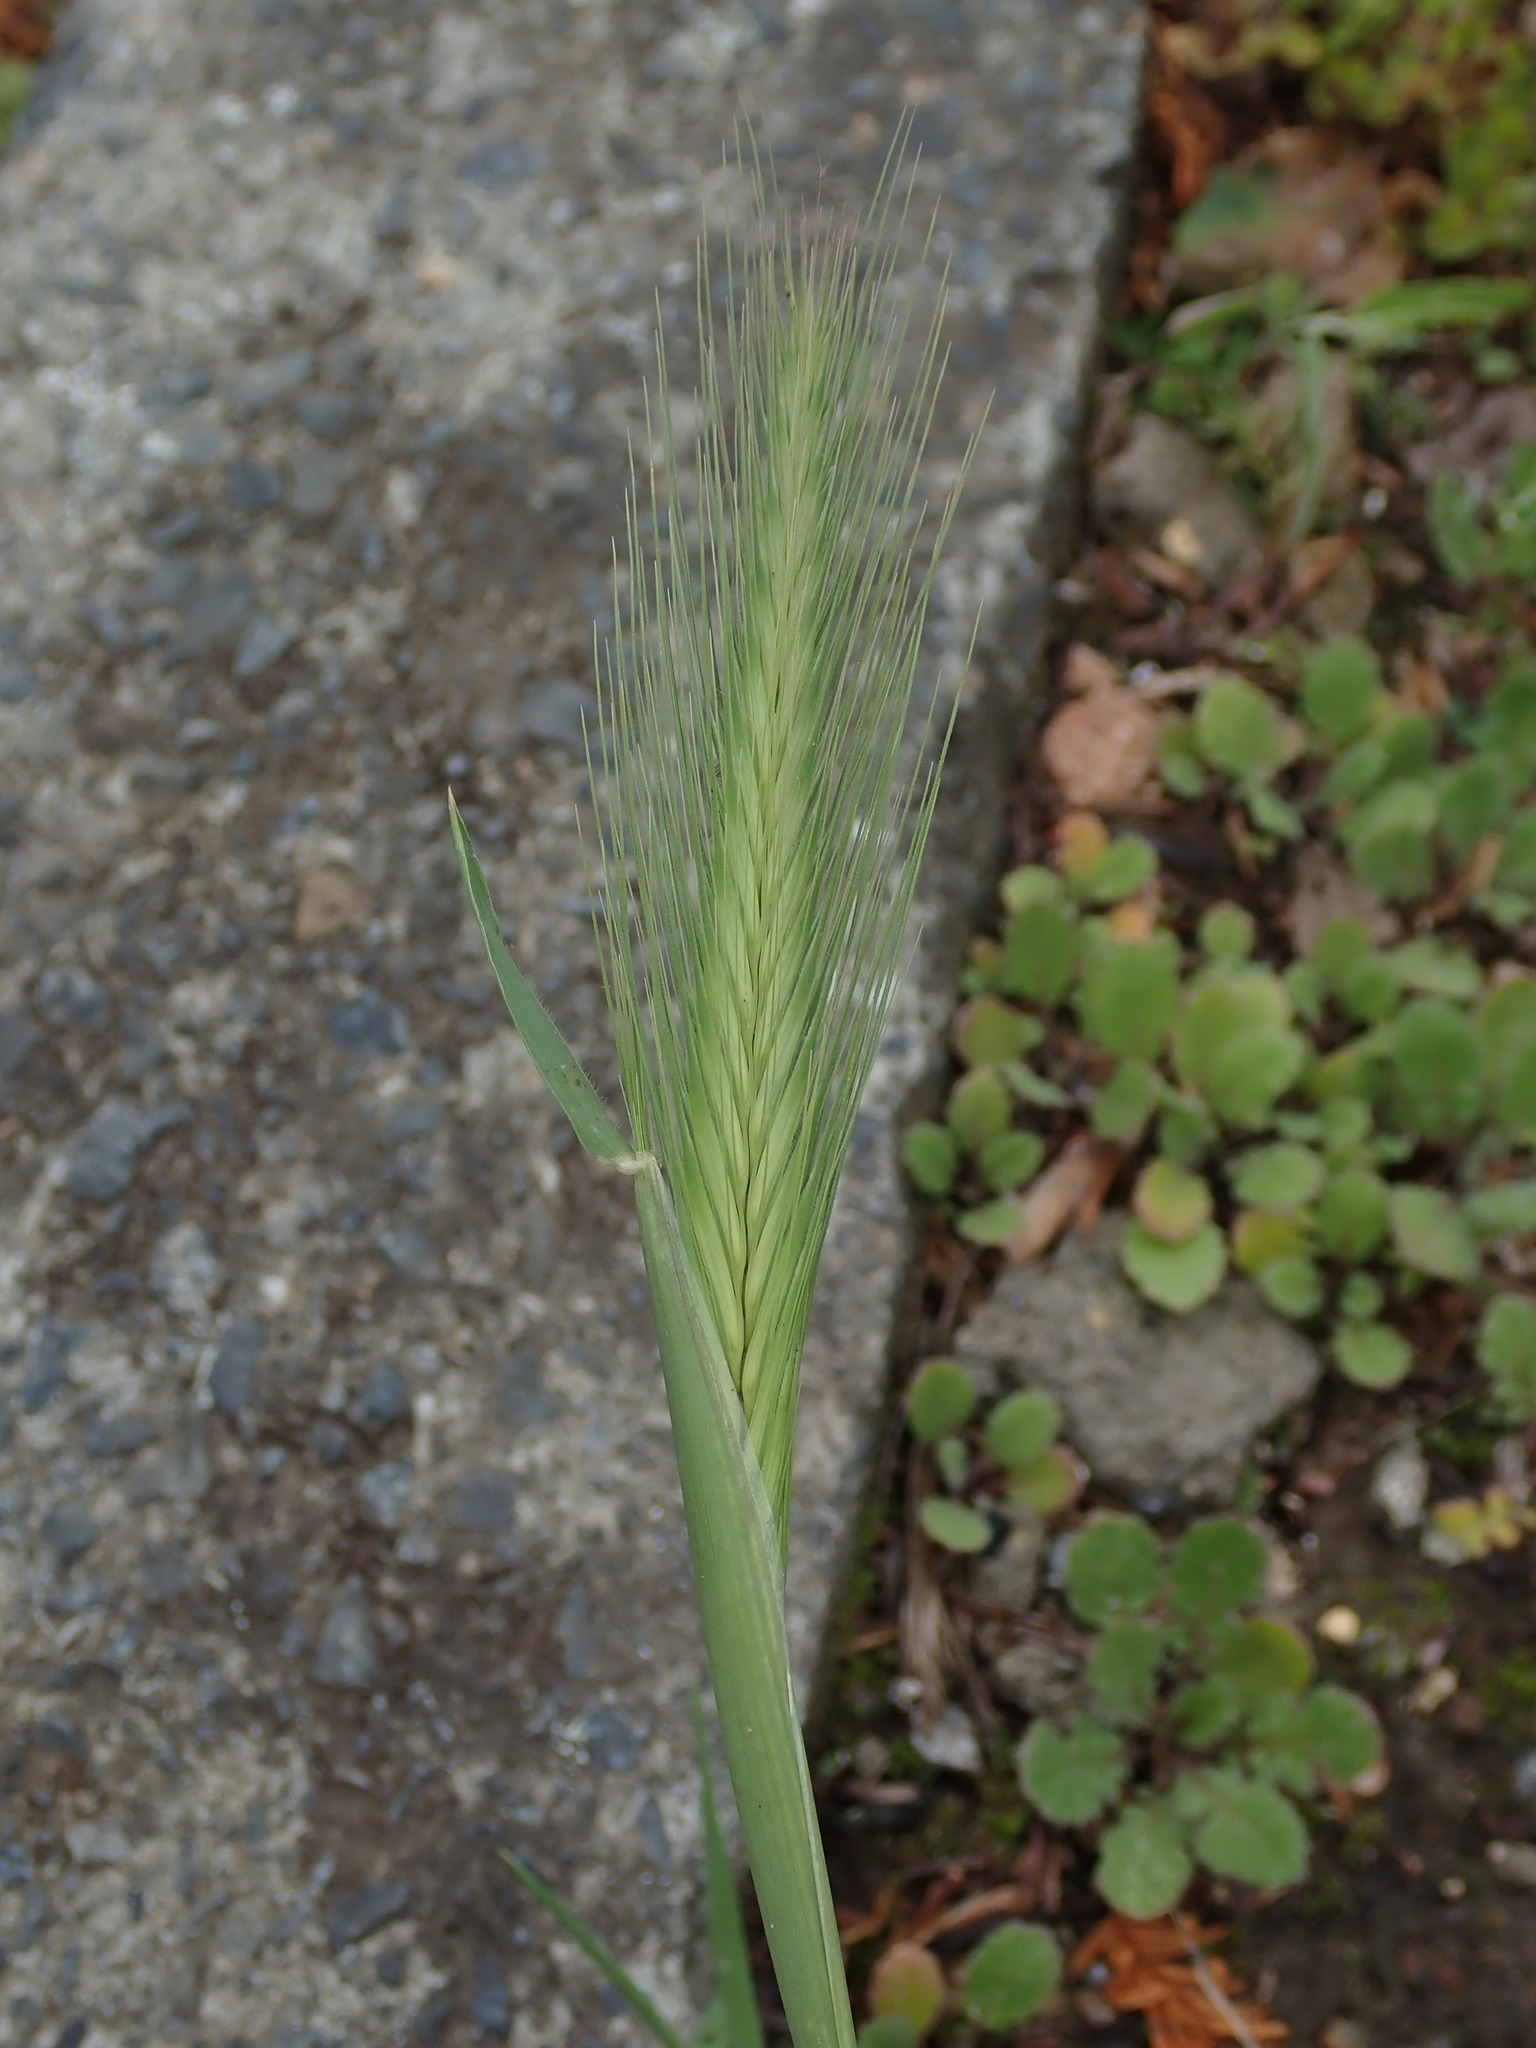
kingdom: Plantae
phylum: Tracheophyta
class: Liliopsida
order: Poales
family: Poaceae
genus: Hordeum
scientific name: Hordeum murinum
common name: Wall barley
